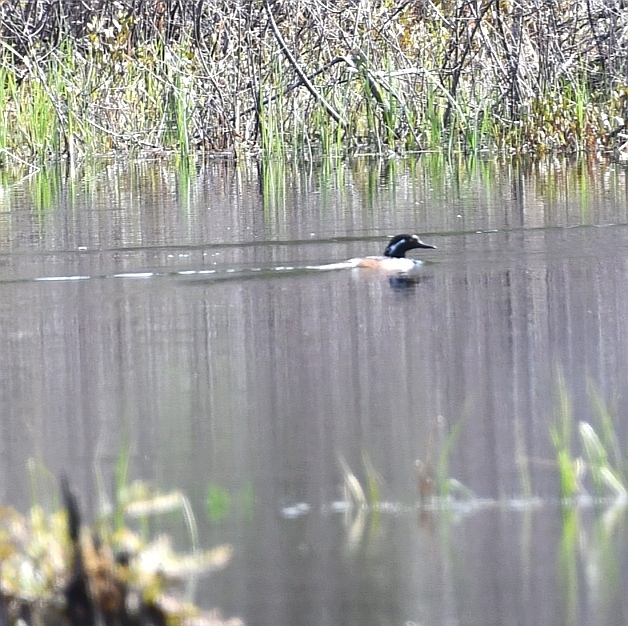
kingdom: Animalia
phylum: Chordata
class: Aves
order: Anseriformes
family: Anatidae
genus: Lophodytes
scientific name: Lophodytes cucullatus
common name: Hooded merganser
